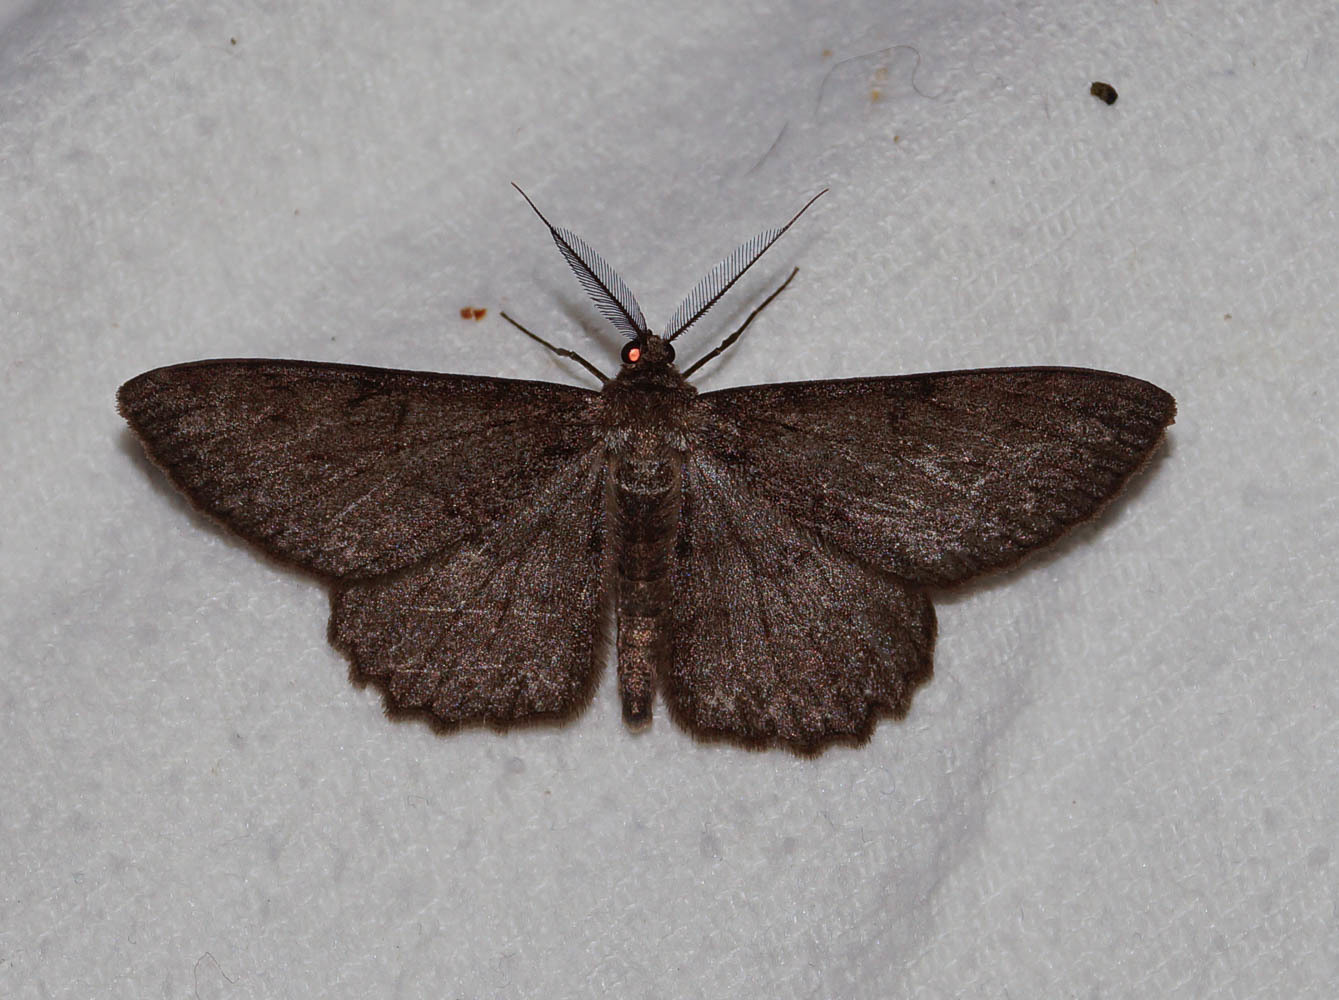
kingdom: Animalia
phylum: Arthropoda
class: Insecta
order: Lepidoptera
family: Geometridae
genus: Hypomecis
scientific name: Hypomecis punctinalis
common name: Pale oak beauty
